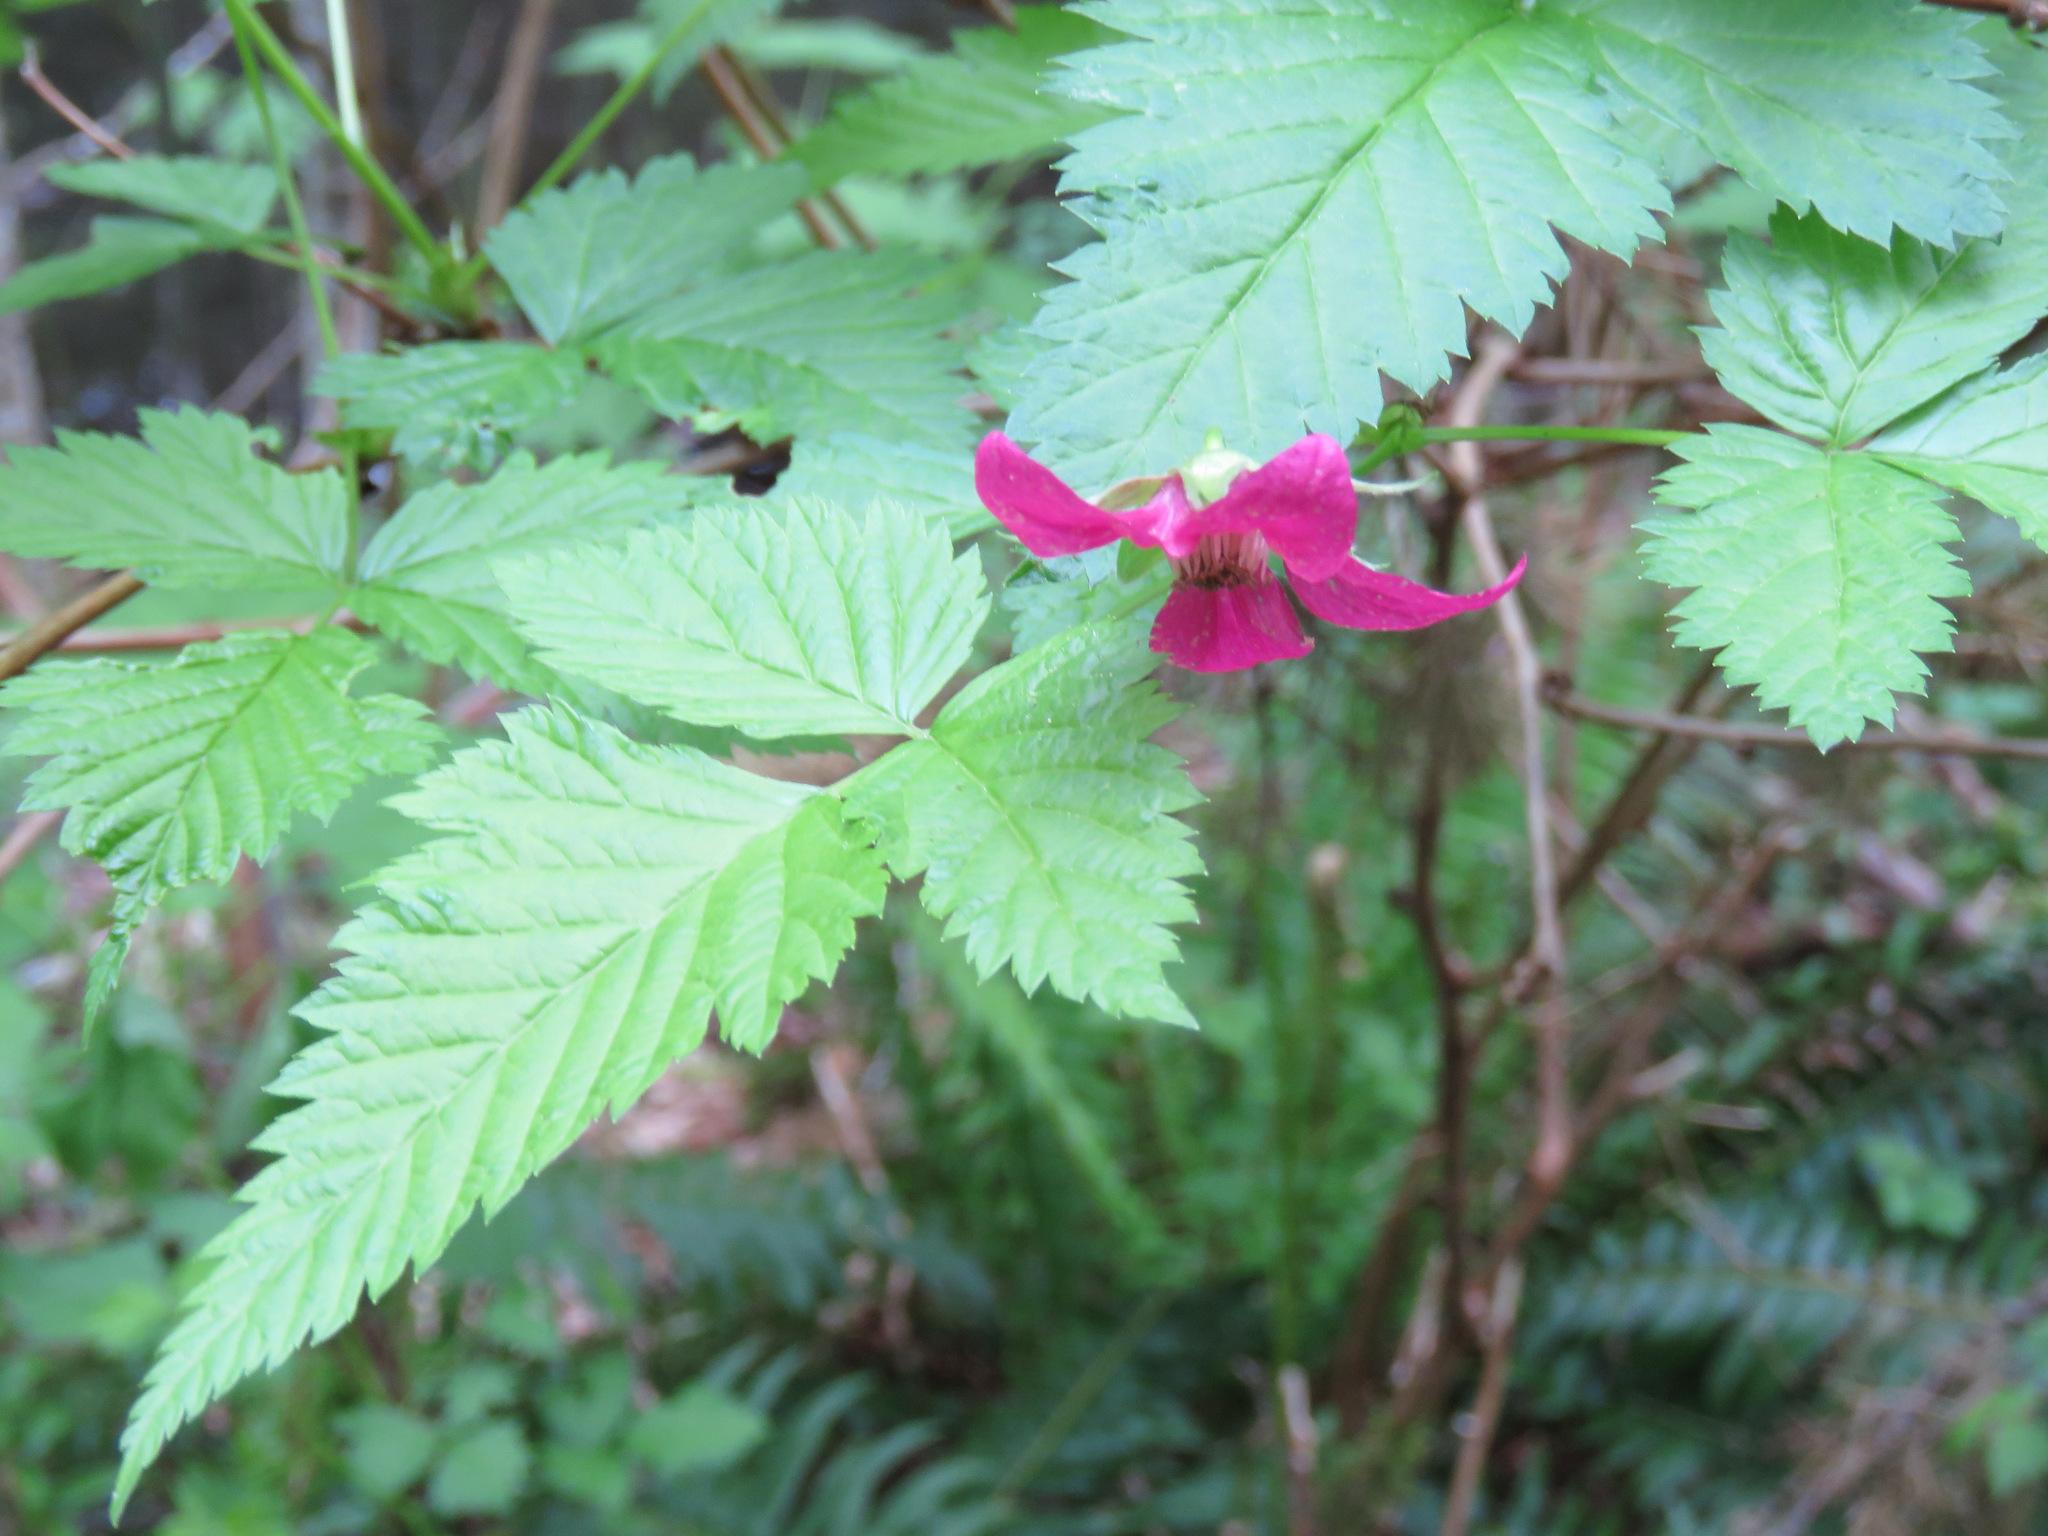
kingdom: Plantae
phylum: Tracheophyta
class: Magnoliopsida
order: Rosales
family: Rosaceae
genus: Rubus
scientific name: Rubus spectabilis
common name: Salmonberry
